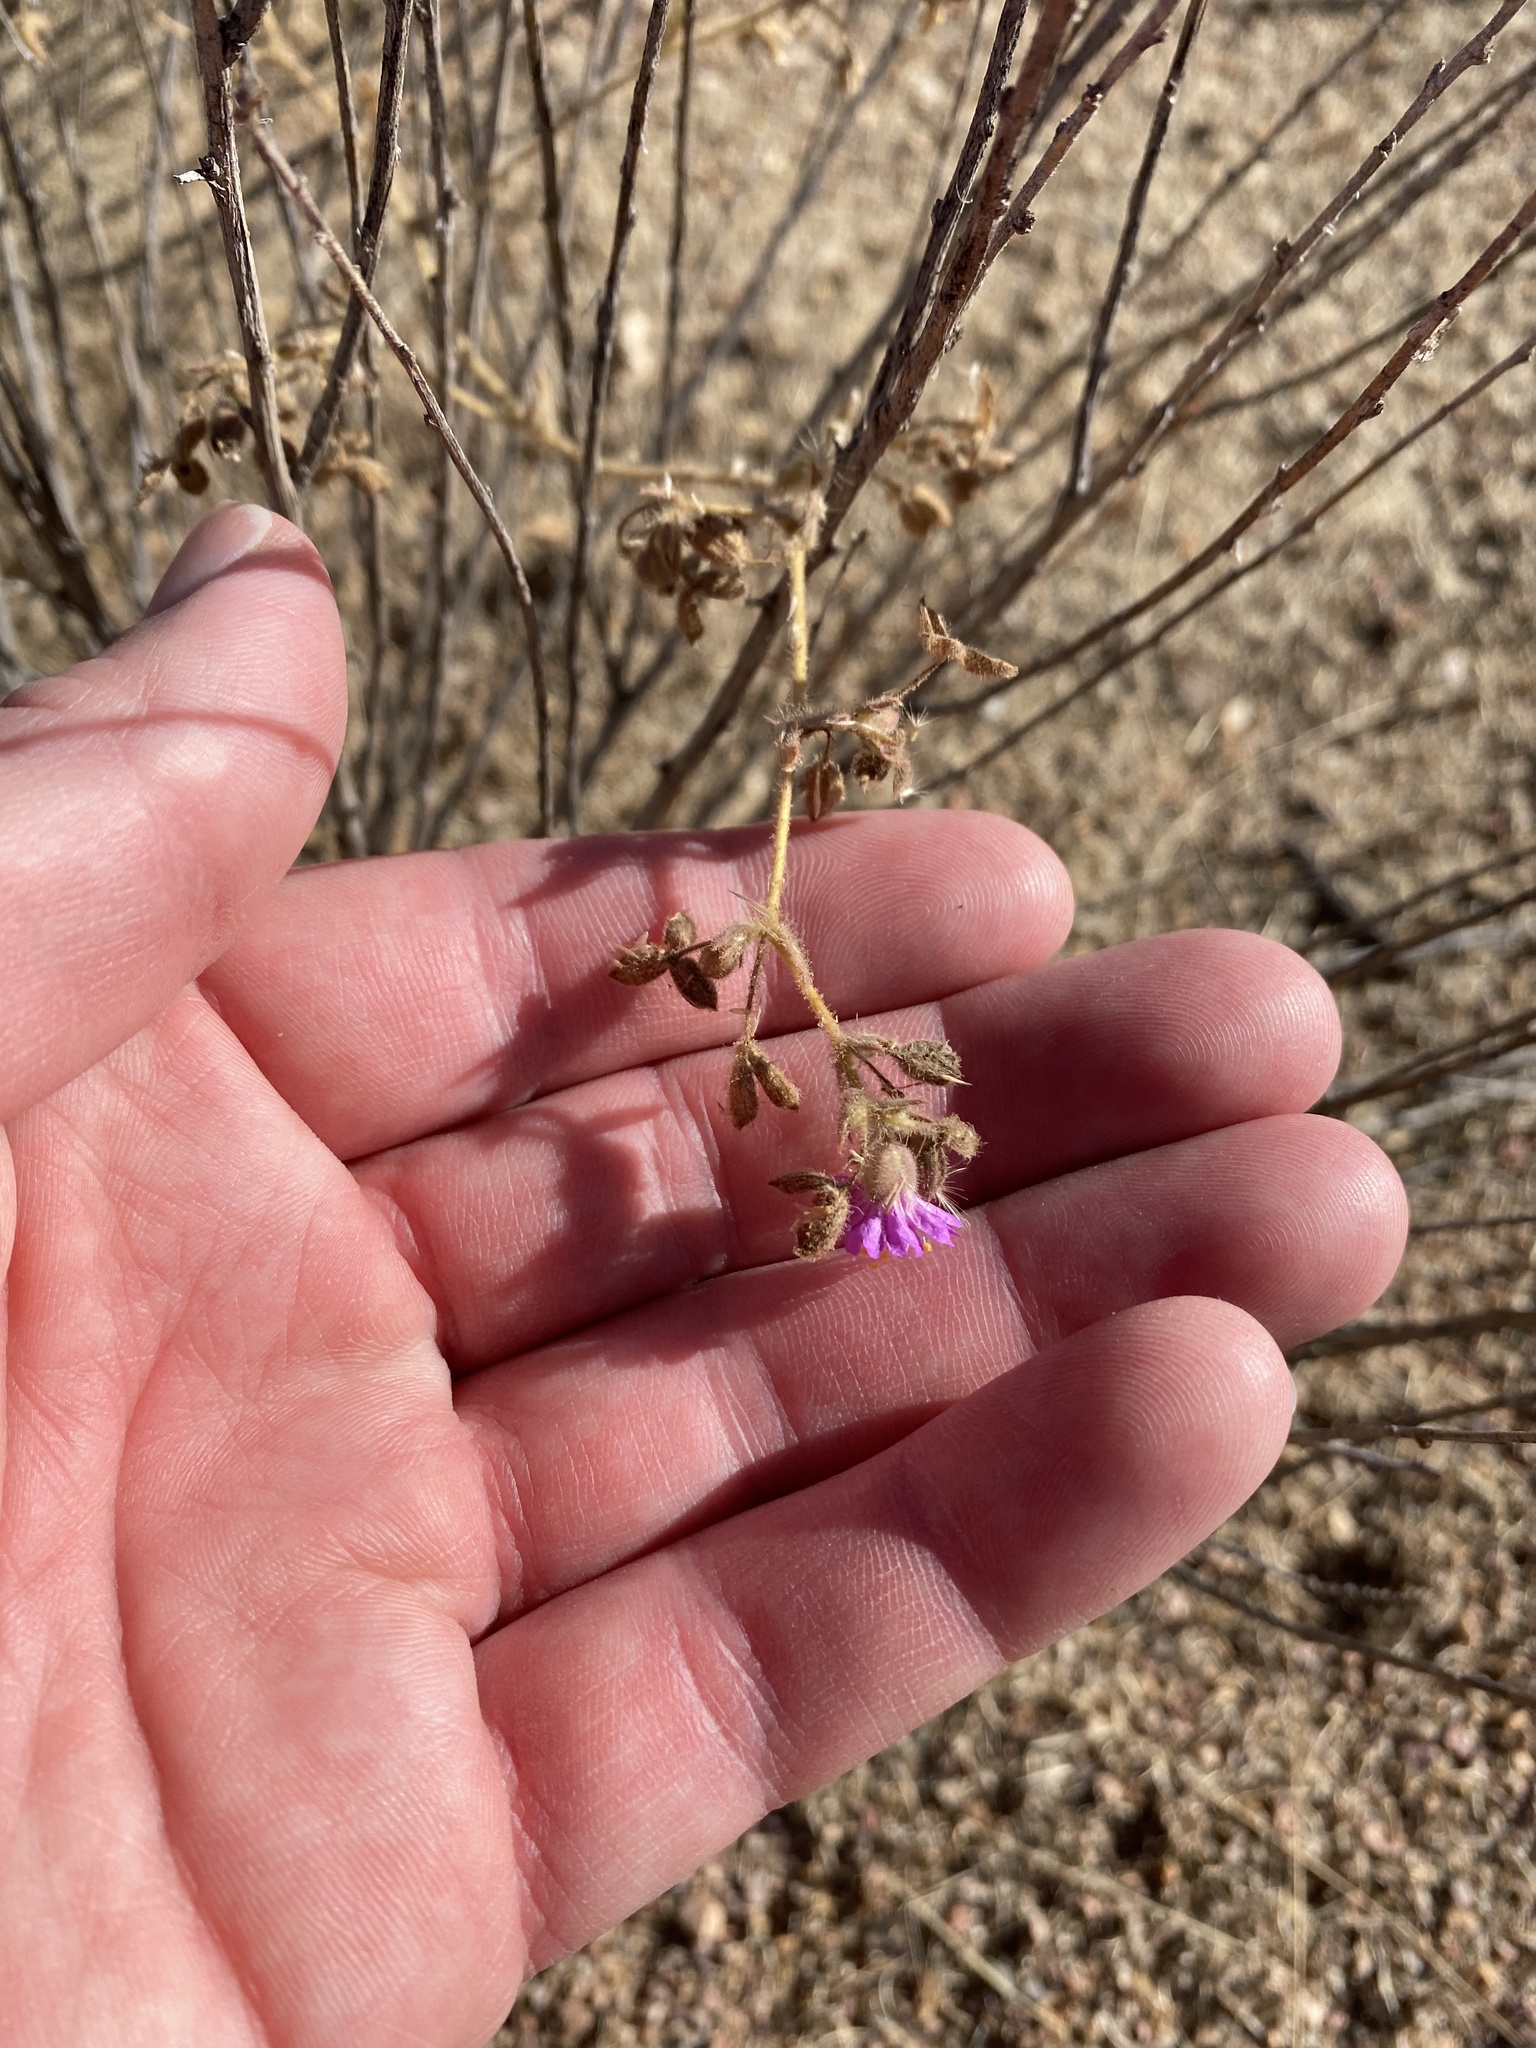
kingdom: Plantae
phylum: Tracheophyta
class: Magnoliopsida
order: Caryophyllales
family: Nyctaginaceae
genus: Allionia
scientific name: Allionia incarnata
